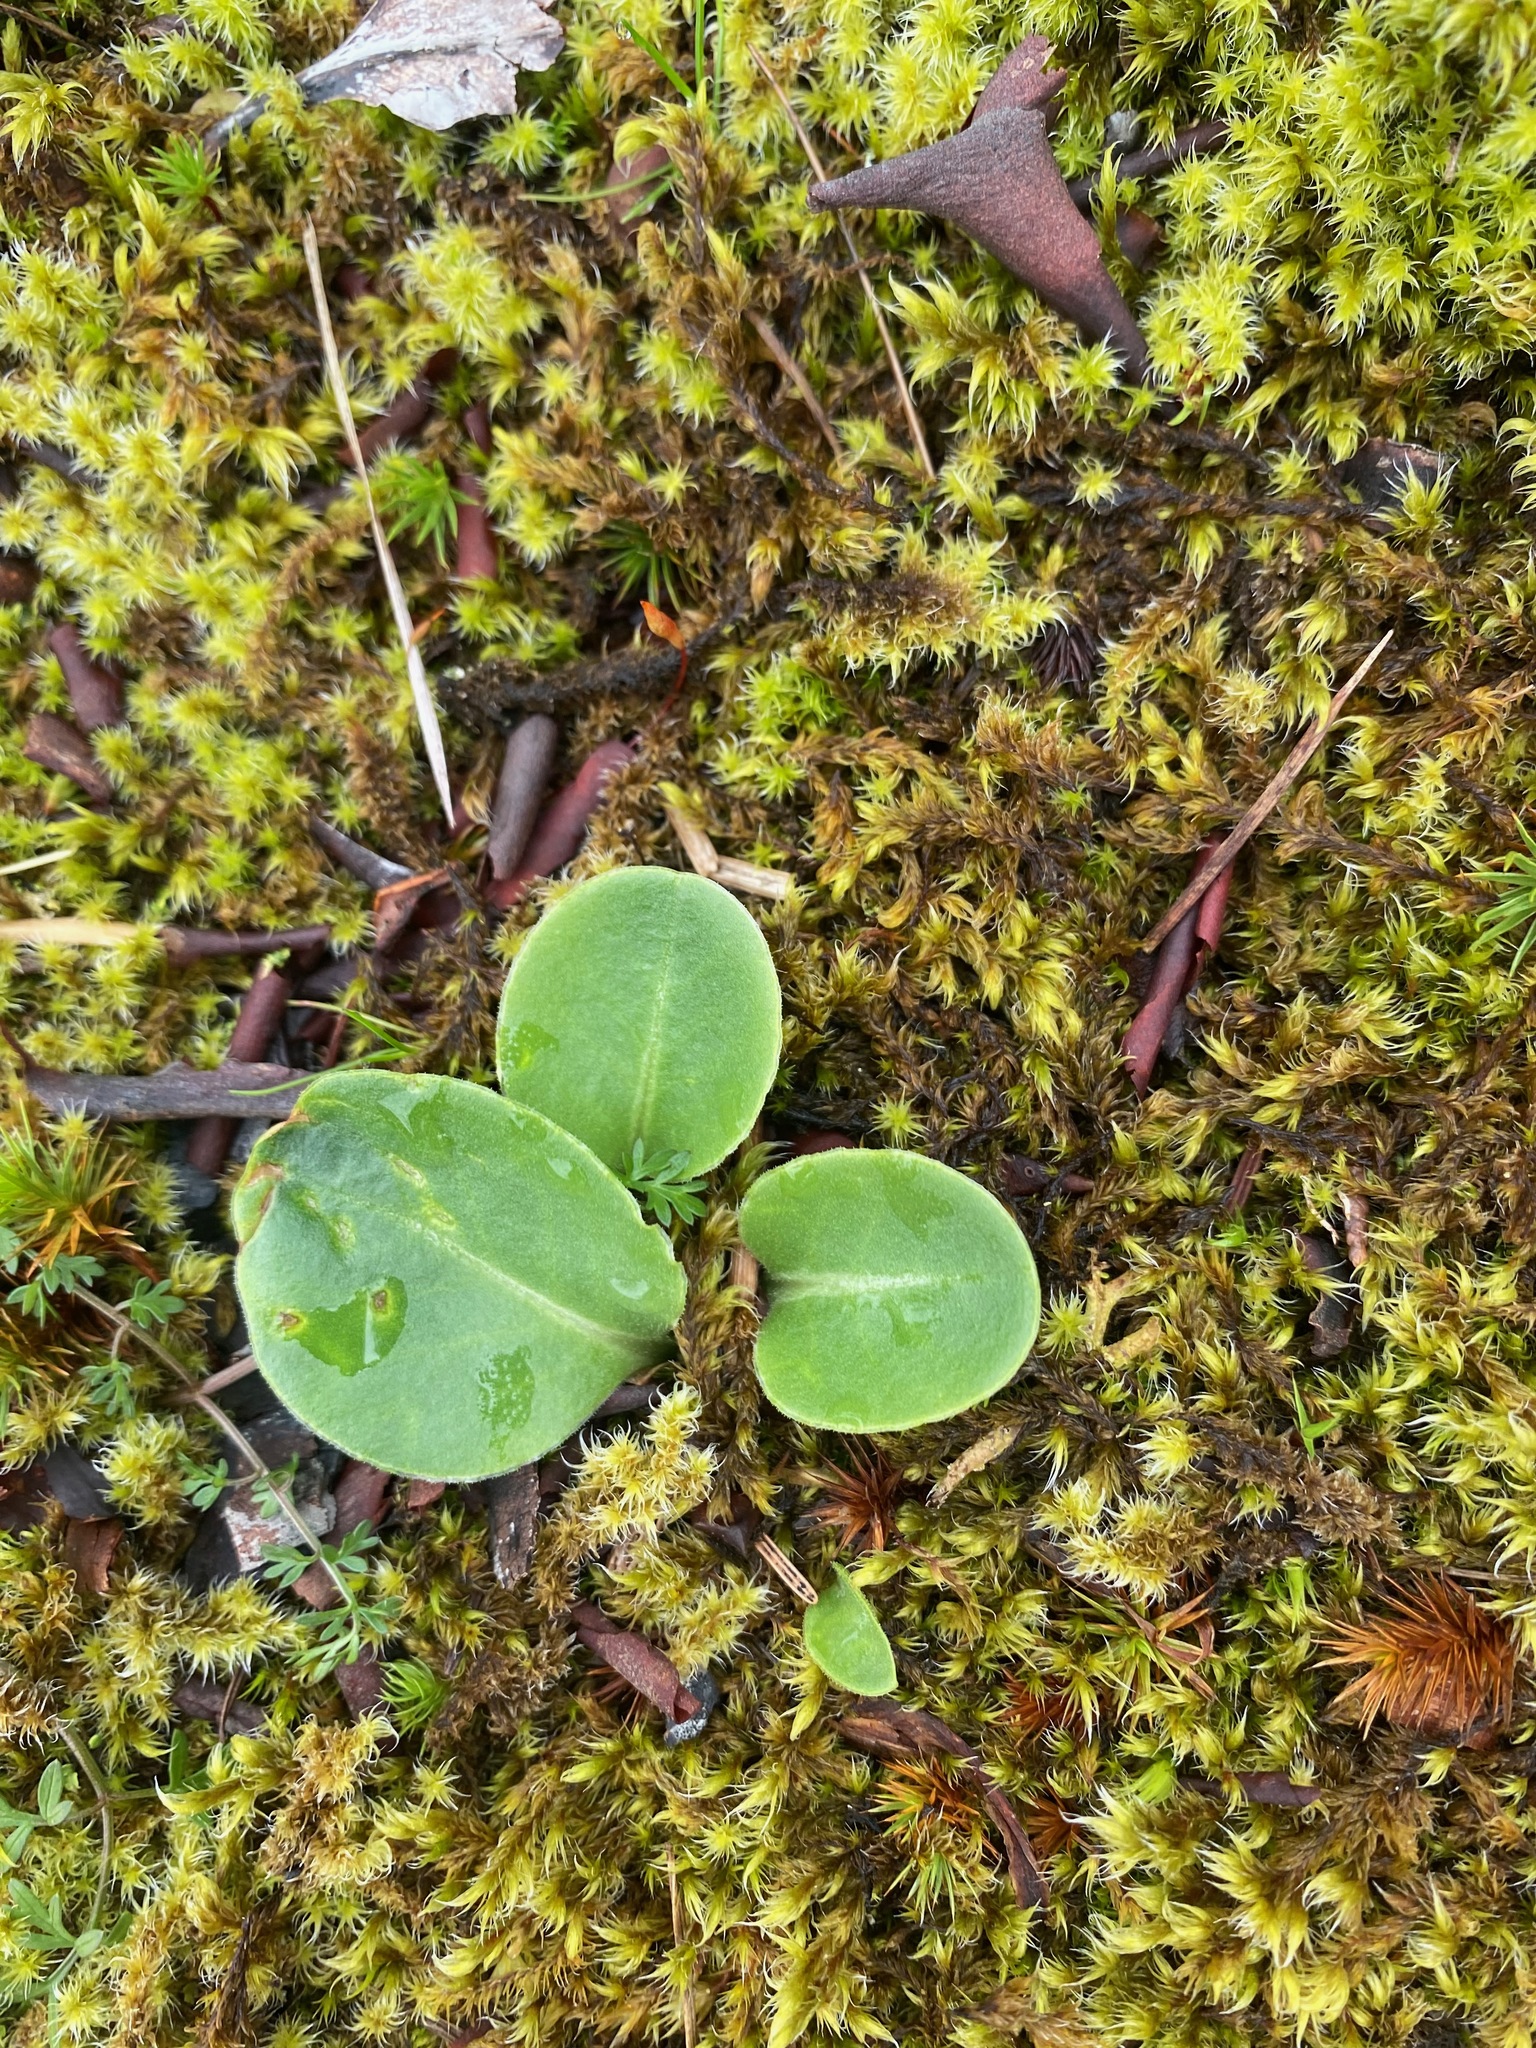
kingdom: Plantae
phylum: Tracheophyta
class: Magnoliopsida
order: Ericales
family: Primulaceae
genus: Dodecatheon
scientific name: Dodecatheon hendersonii
